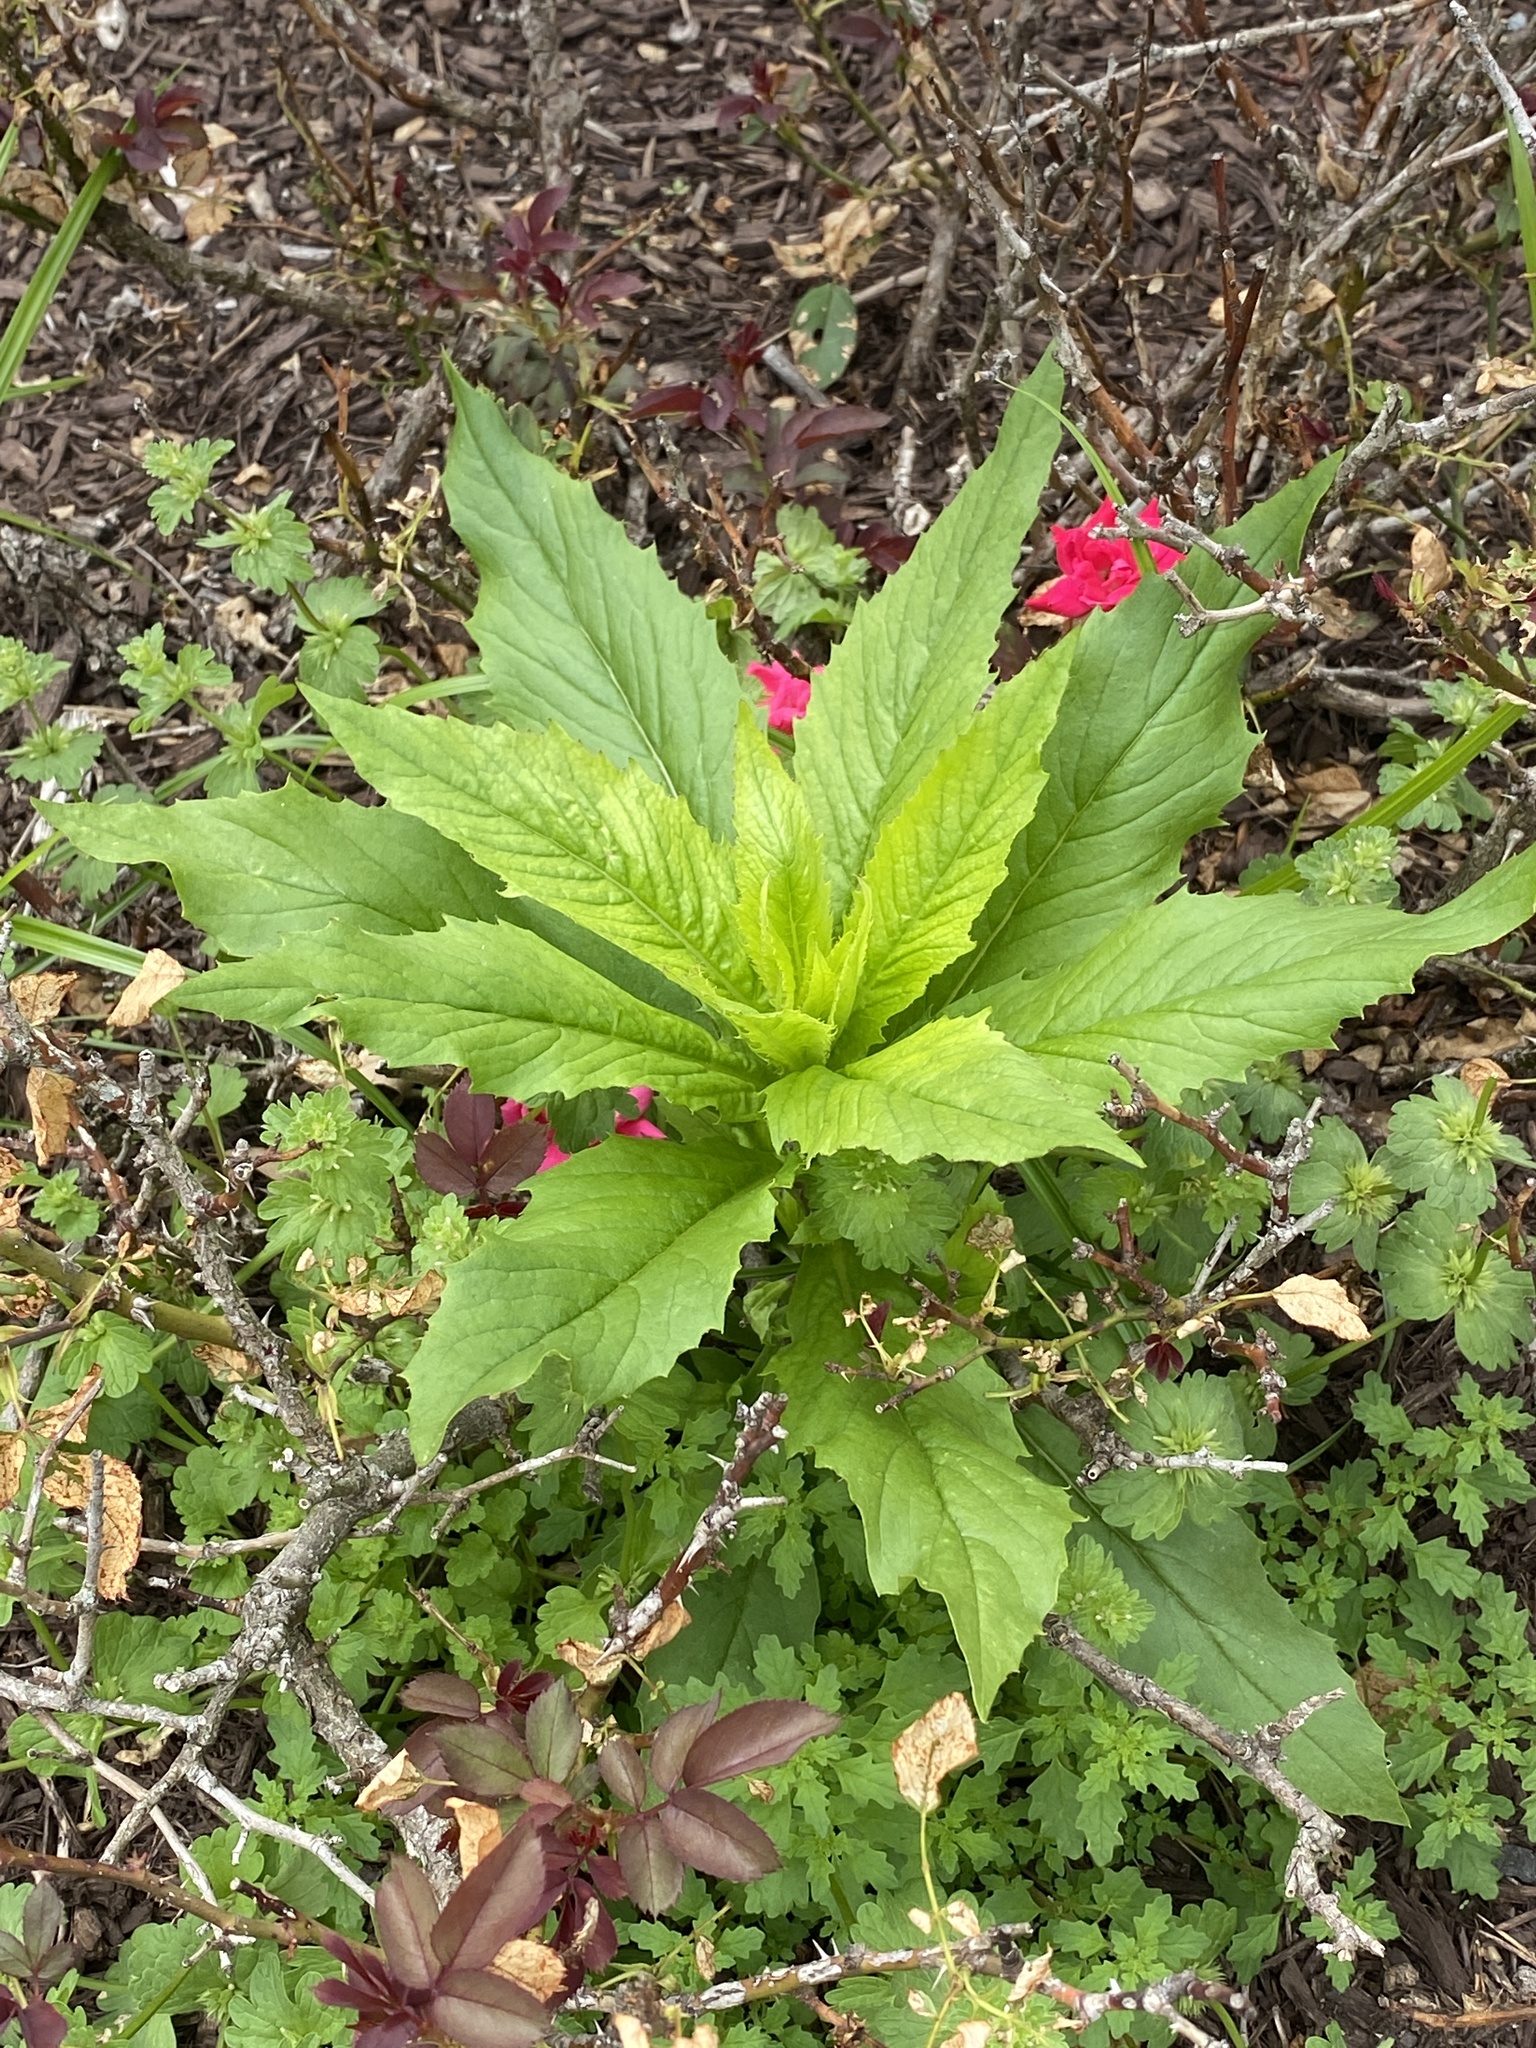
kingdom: Plantae
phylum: Tracheophyta
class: Magnoliopsida
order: Asterales
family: Asteraceae
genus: Erechtites
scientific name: Erechtites hieraciifolius
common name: American burnweed
